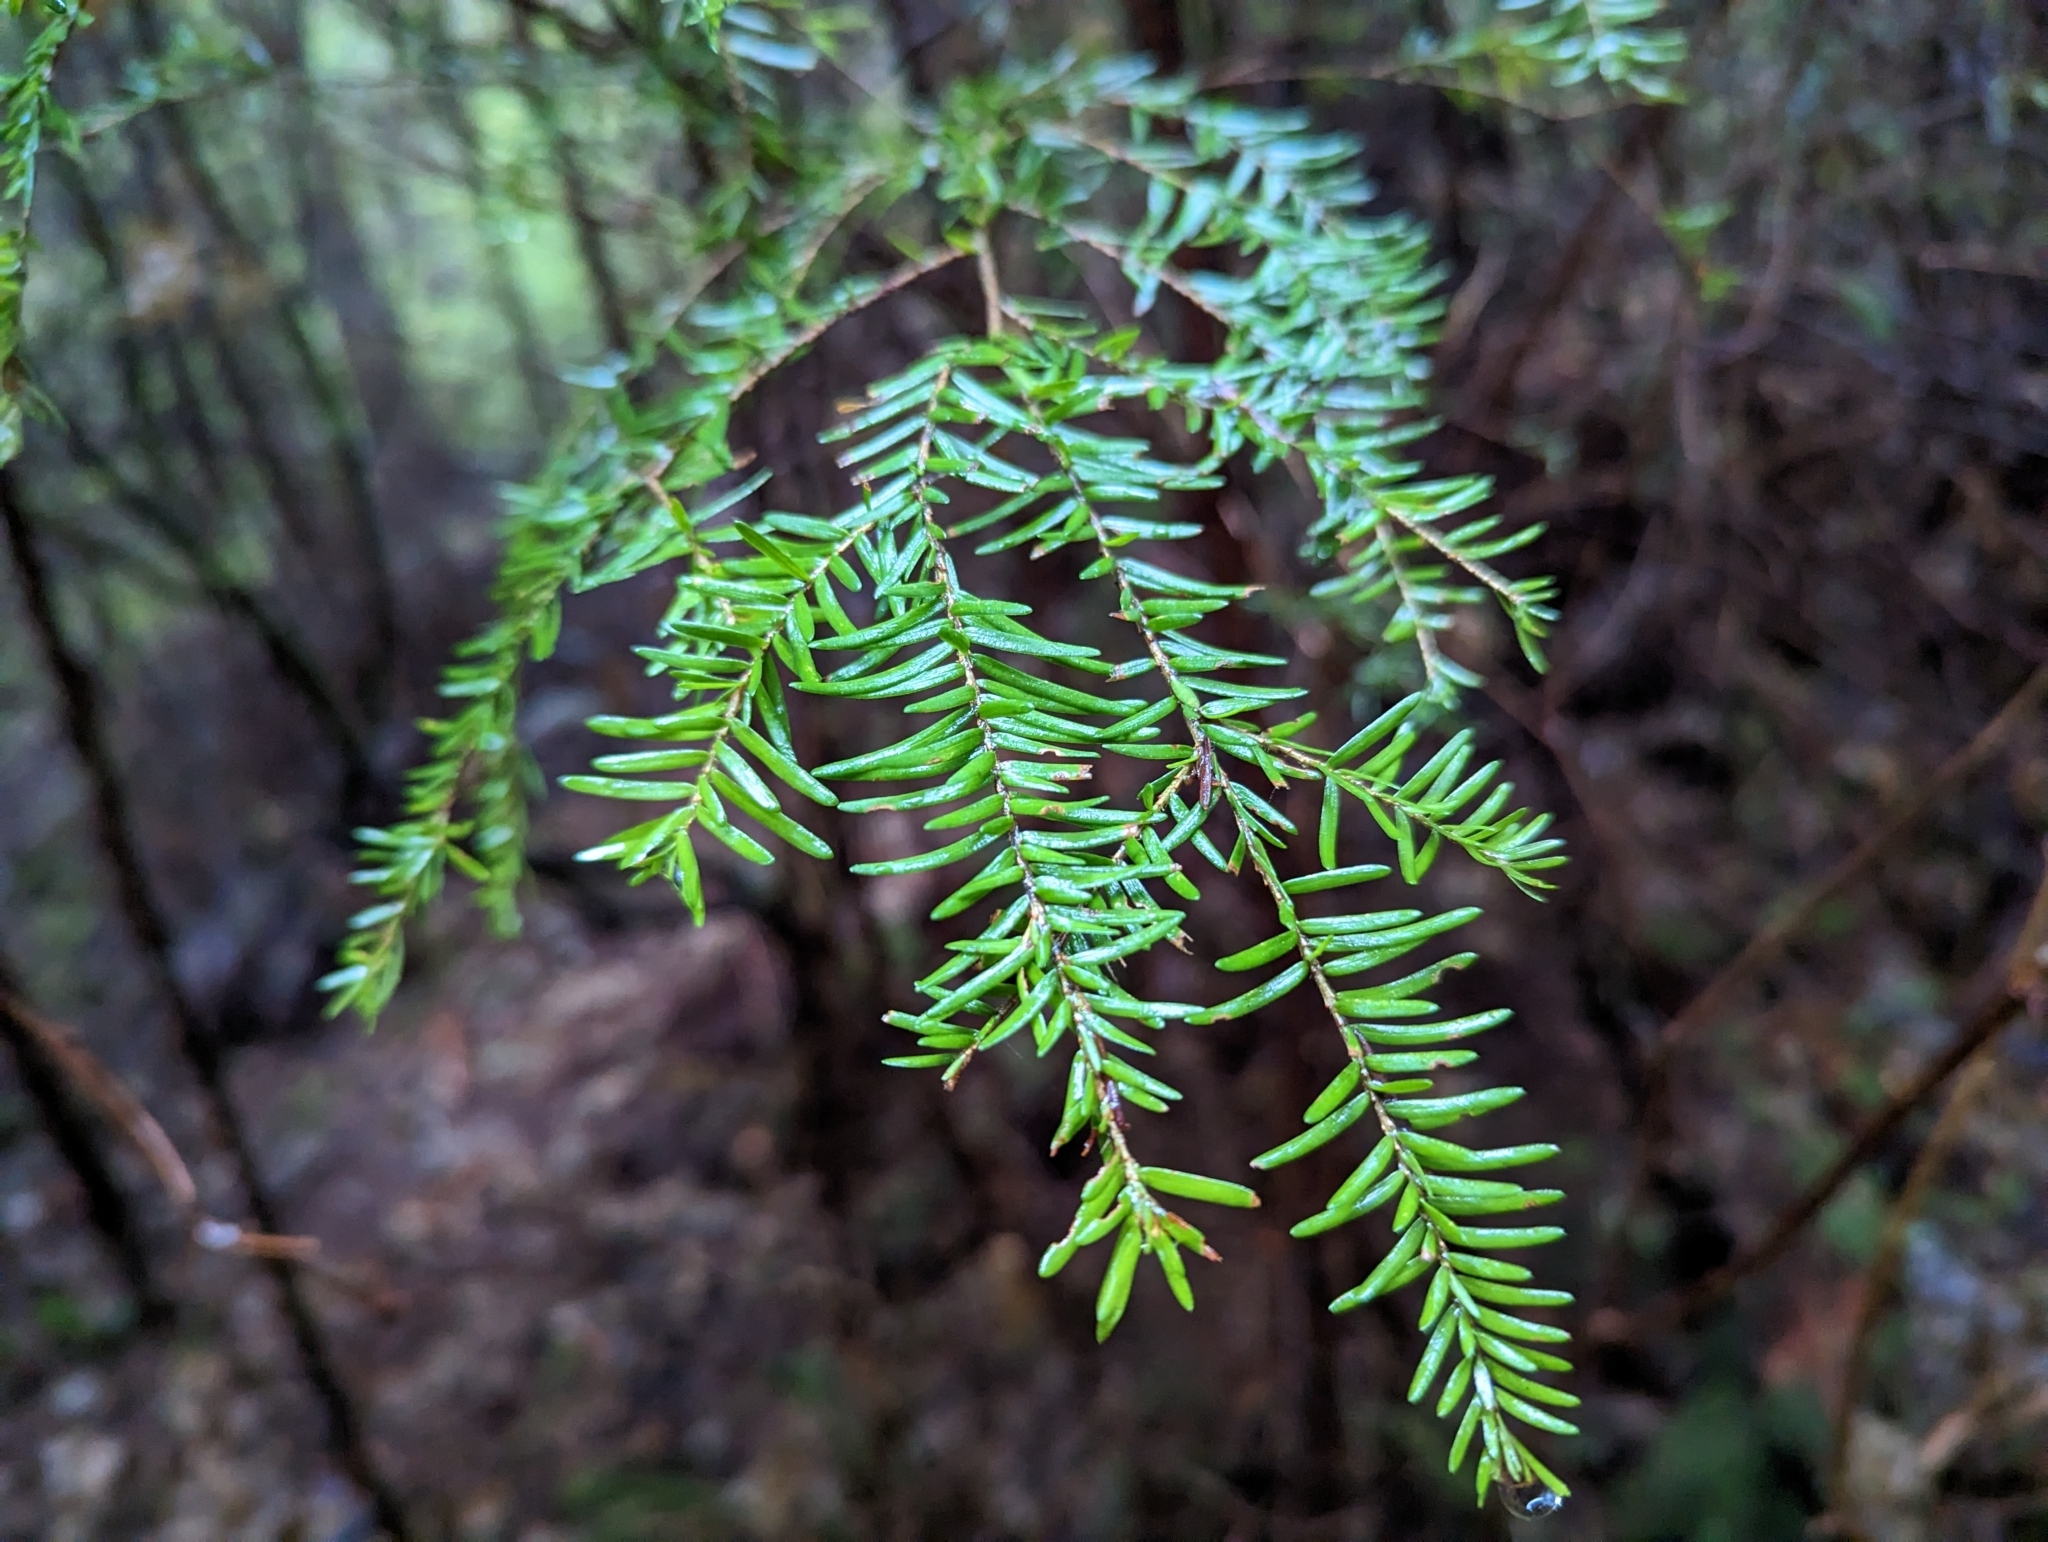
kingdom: Plantae
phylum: Tracheophyta
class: Pinopsida
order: Pinales
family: Pinaceae
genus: Tsuga
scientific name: Tsuga heterophylla
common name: Western hemlock
